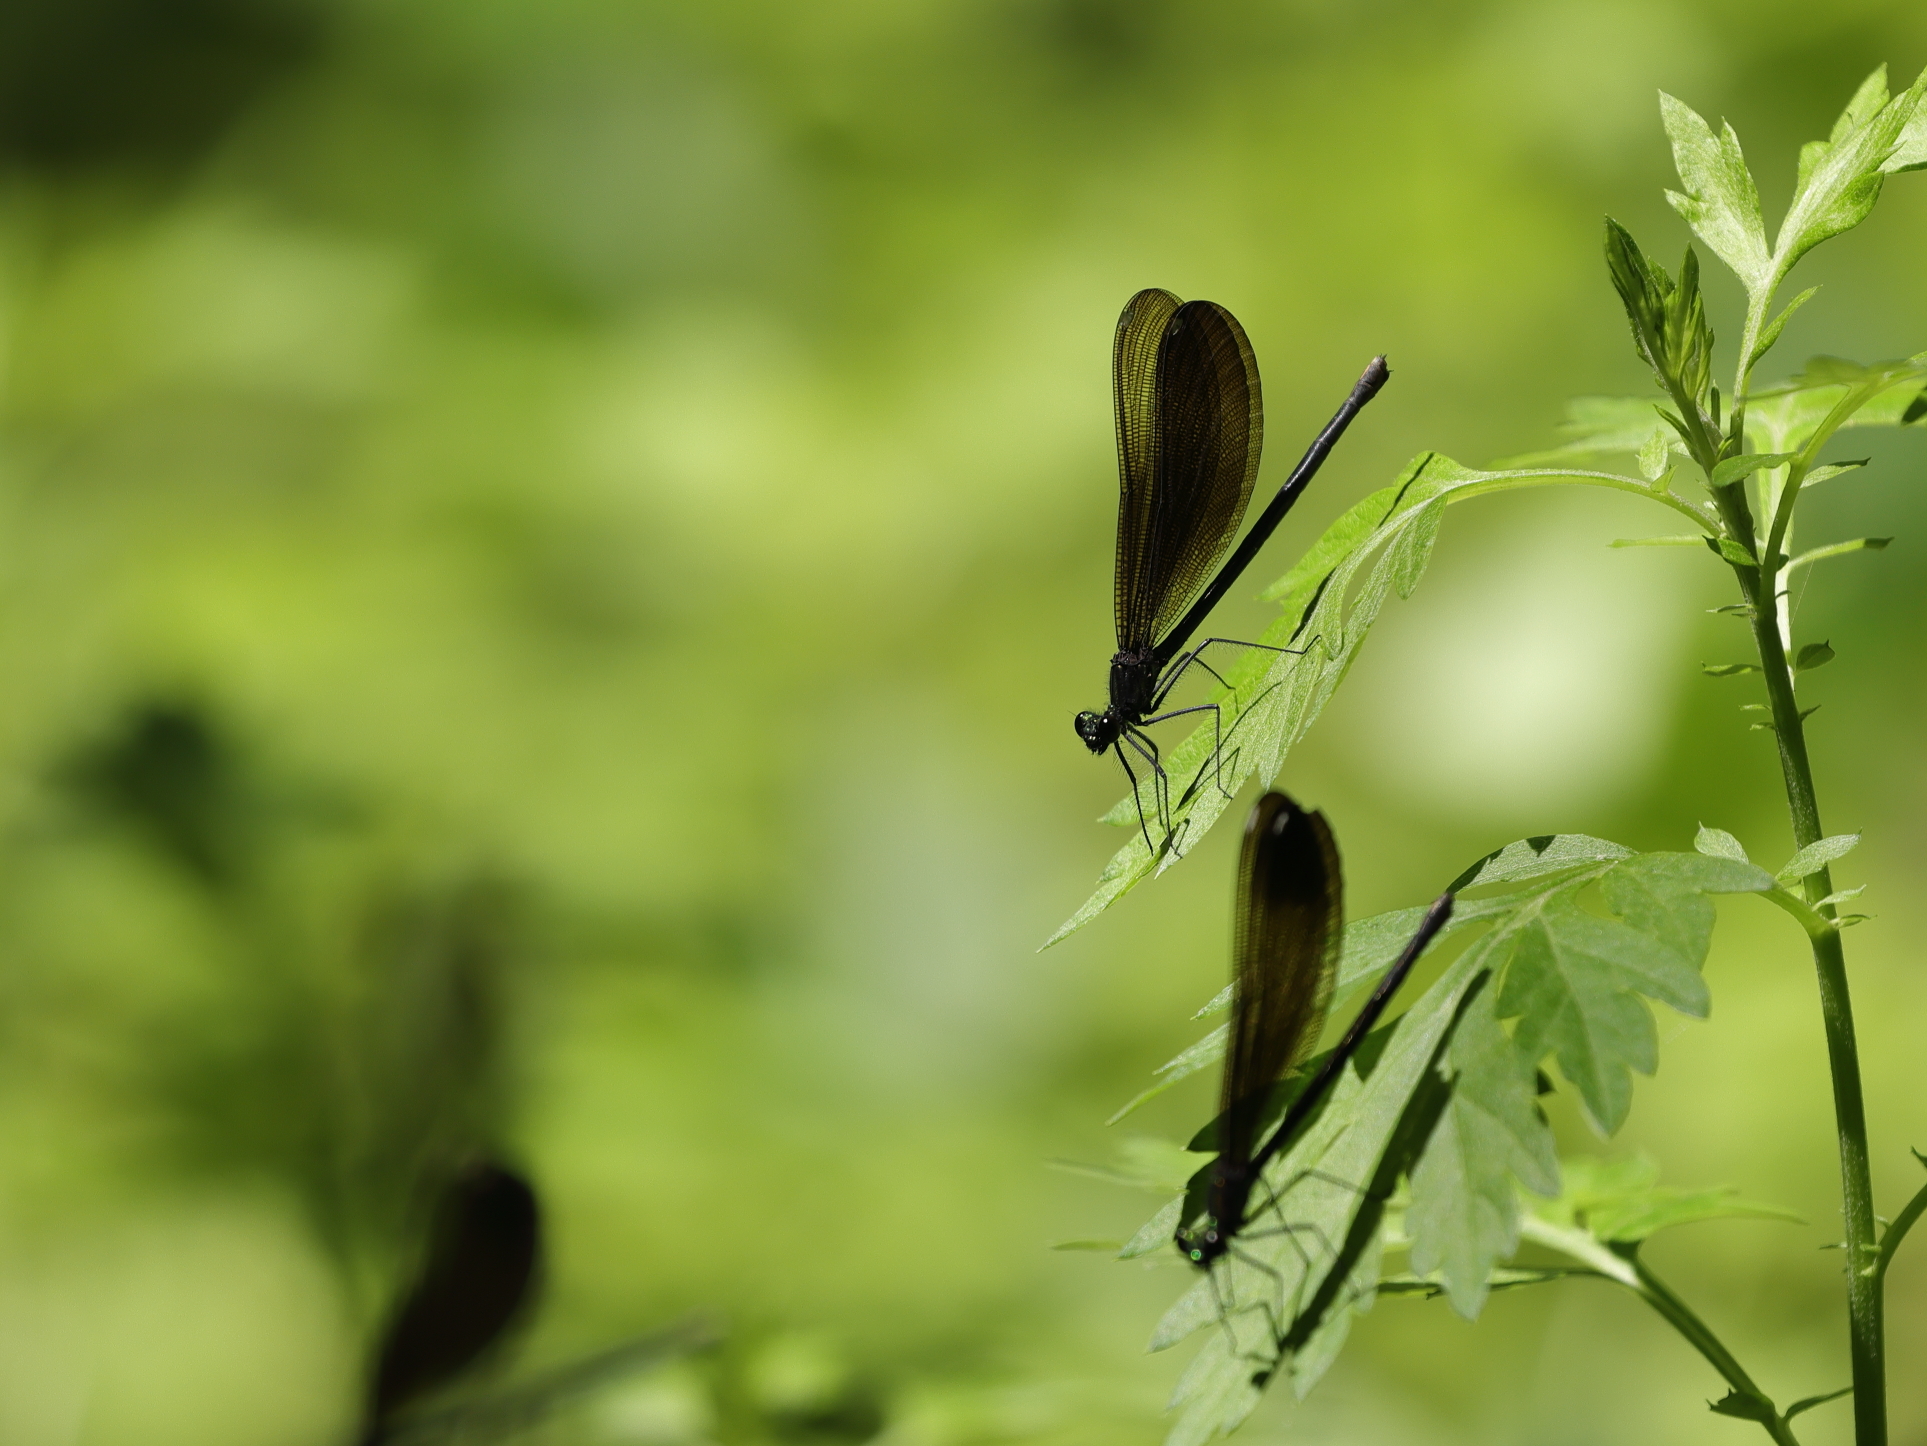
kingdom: Animalia
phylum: Arthropoda
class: Insecta
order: Odonata
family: Calopterygidae
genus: Calopteryx
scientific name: Calopteryx maculata
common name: Ebony jewelwing
